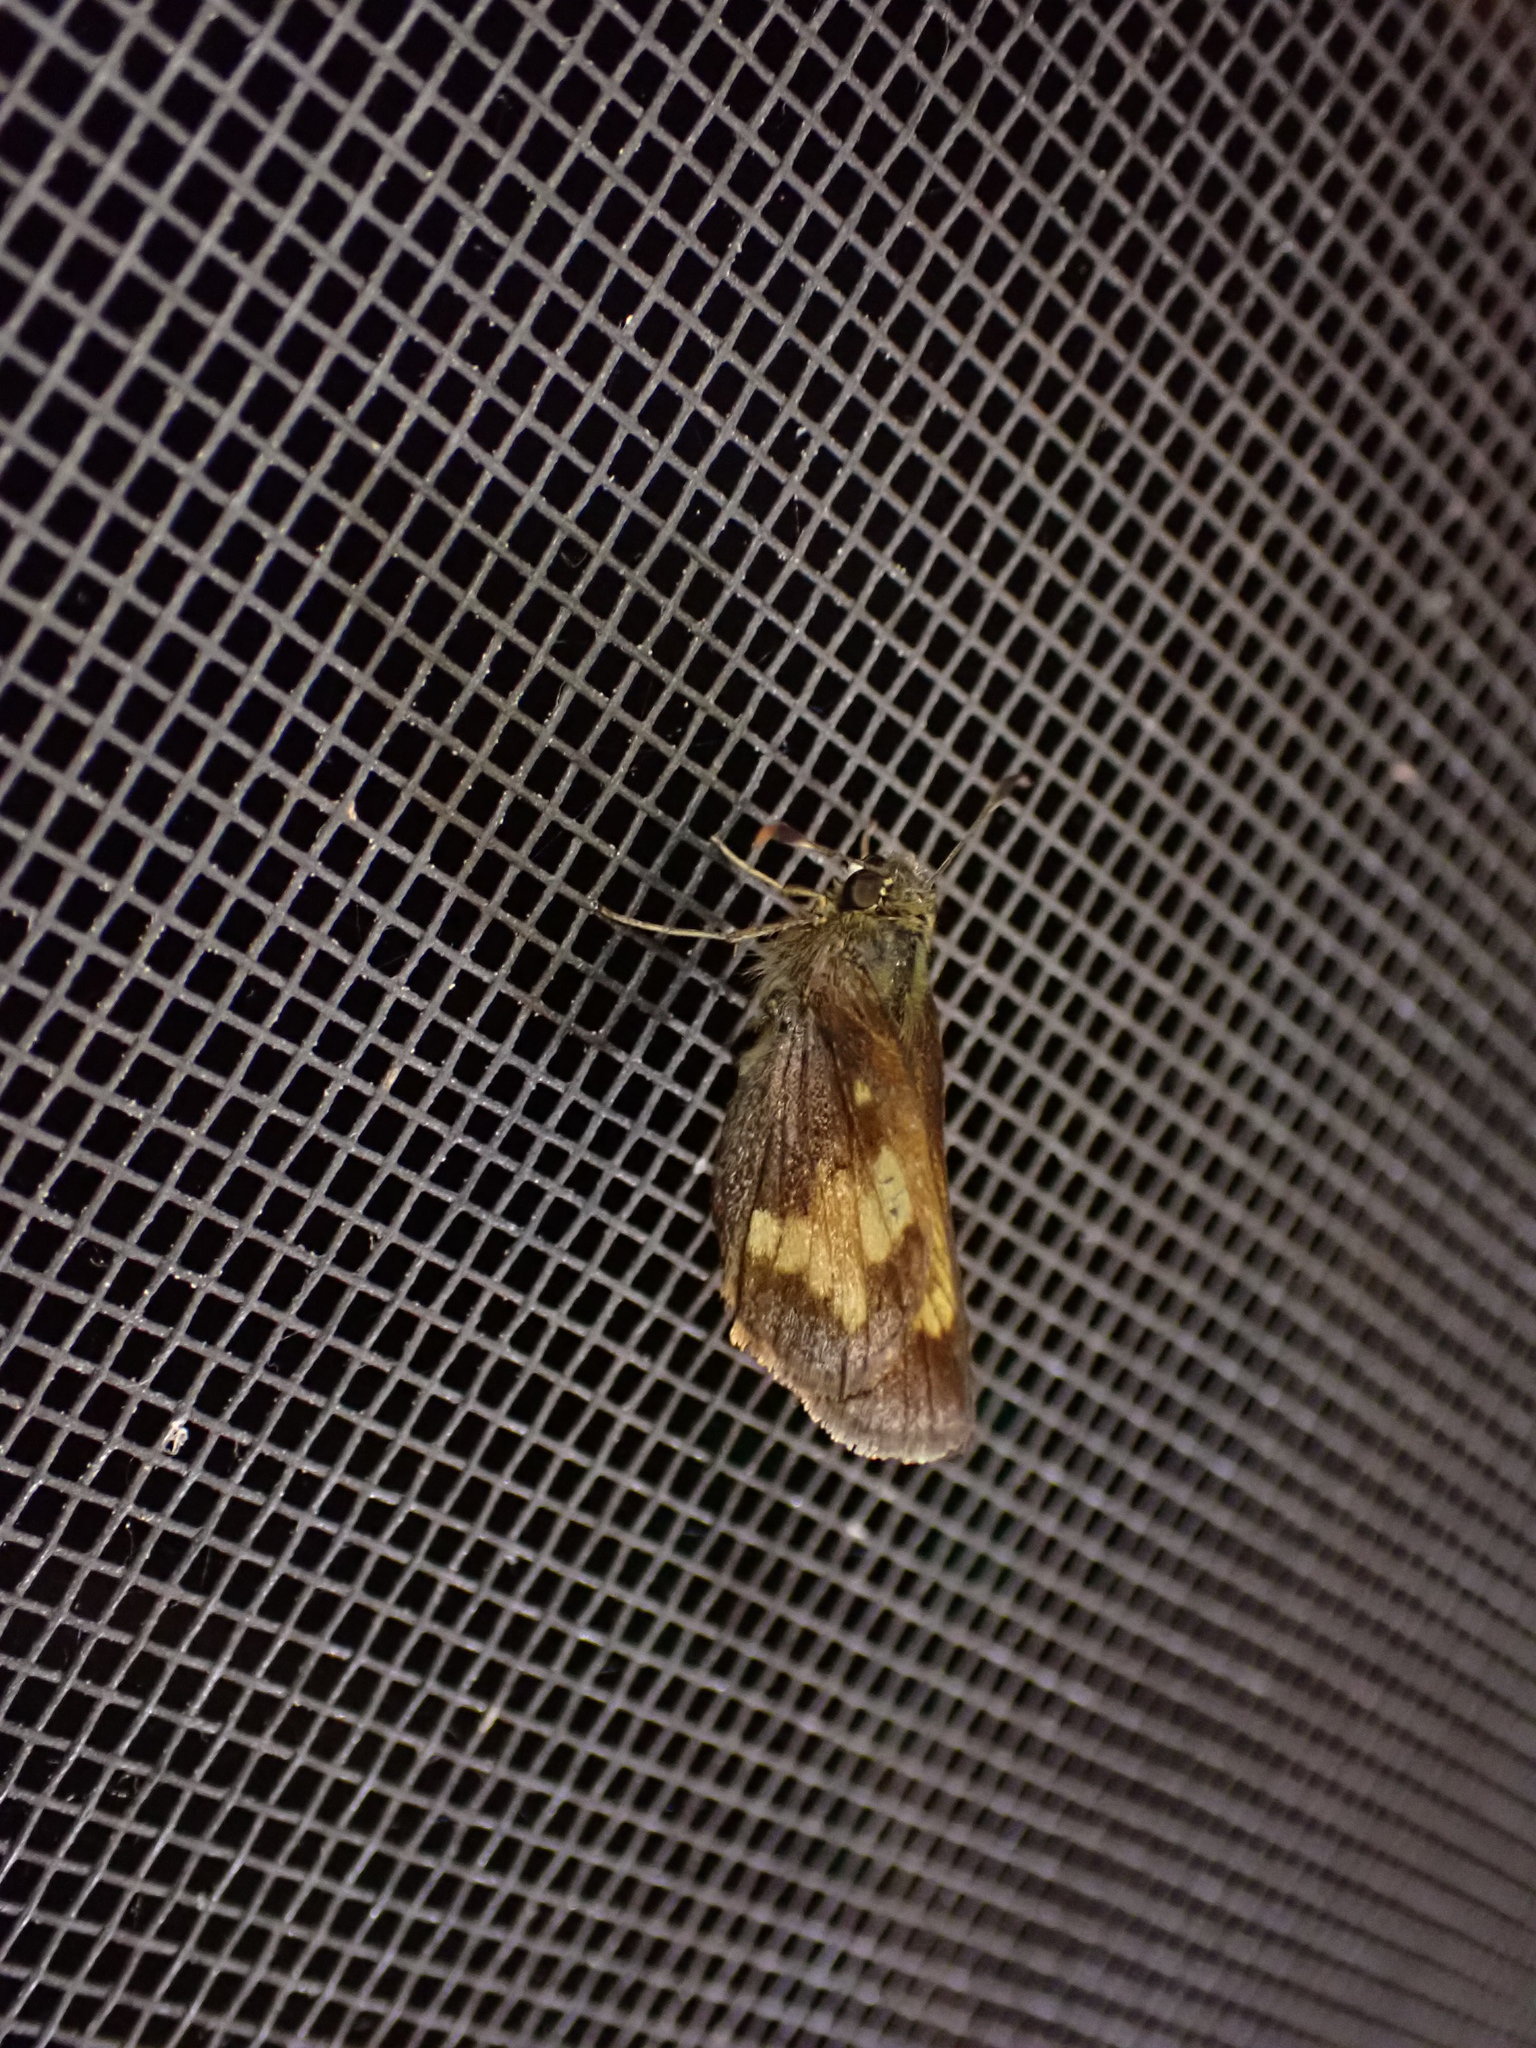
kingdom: Animalia
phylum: Arthropoda
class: Insecta
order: Lepidoptera
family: Hesperiidae
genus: Lon
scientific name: Lon hobomok
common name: Hobomok skipper
